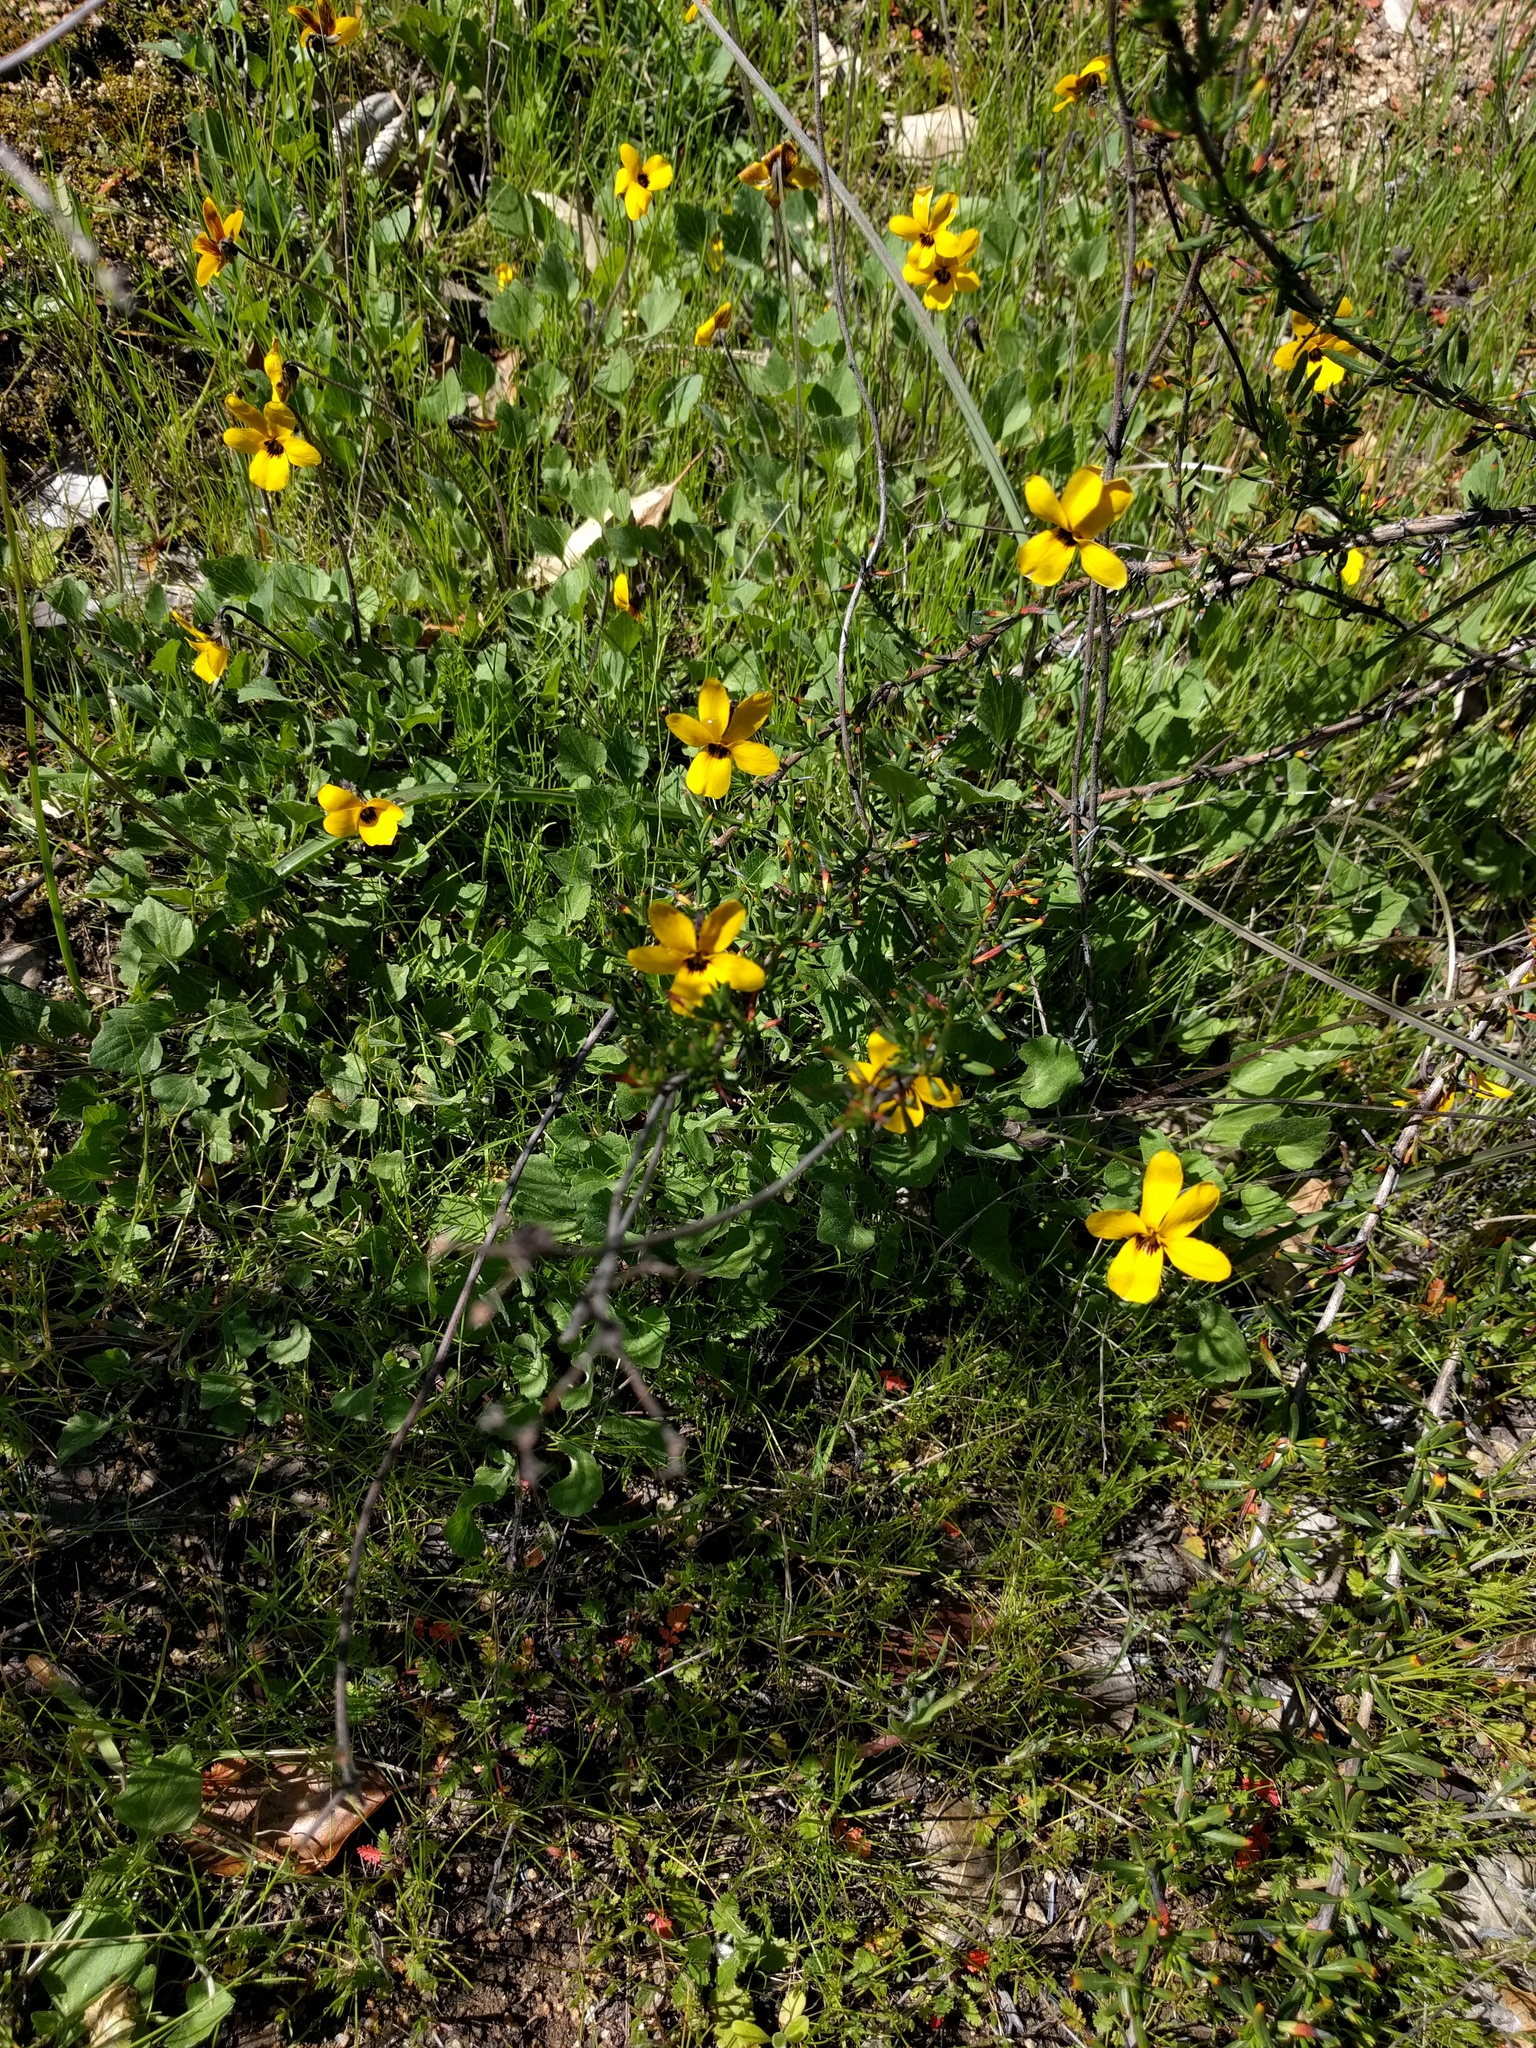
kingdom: Plantae
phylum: Tracheophyta
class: Magnoliopsida
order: Malpighiales
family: Violaceae
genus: Viola
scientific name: Viola pedunculata
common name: California golden violet
